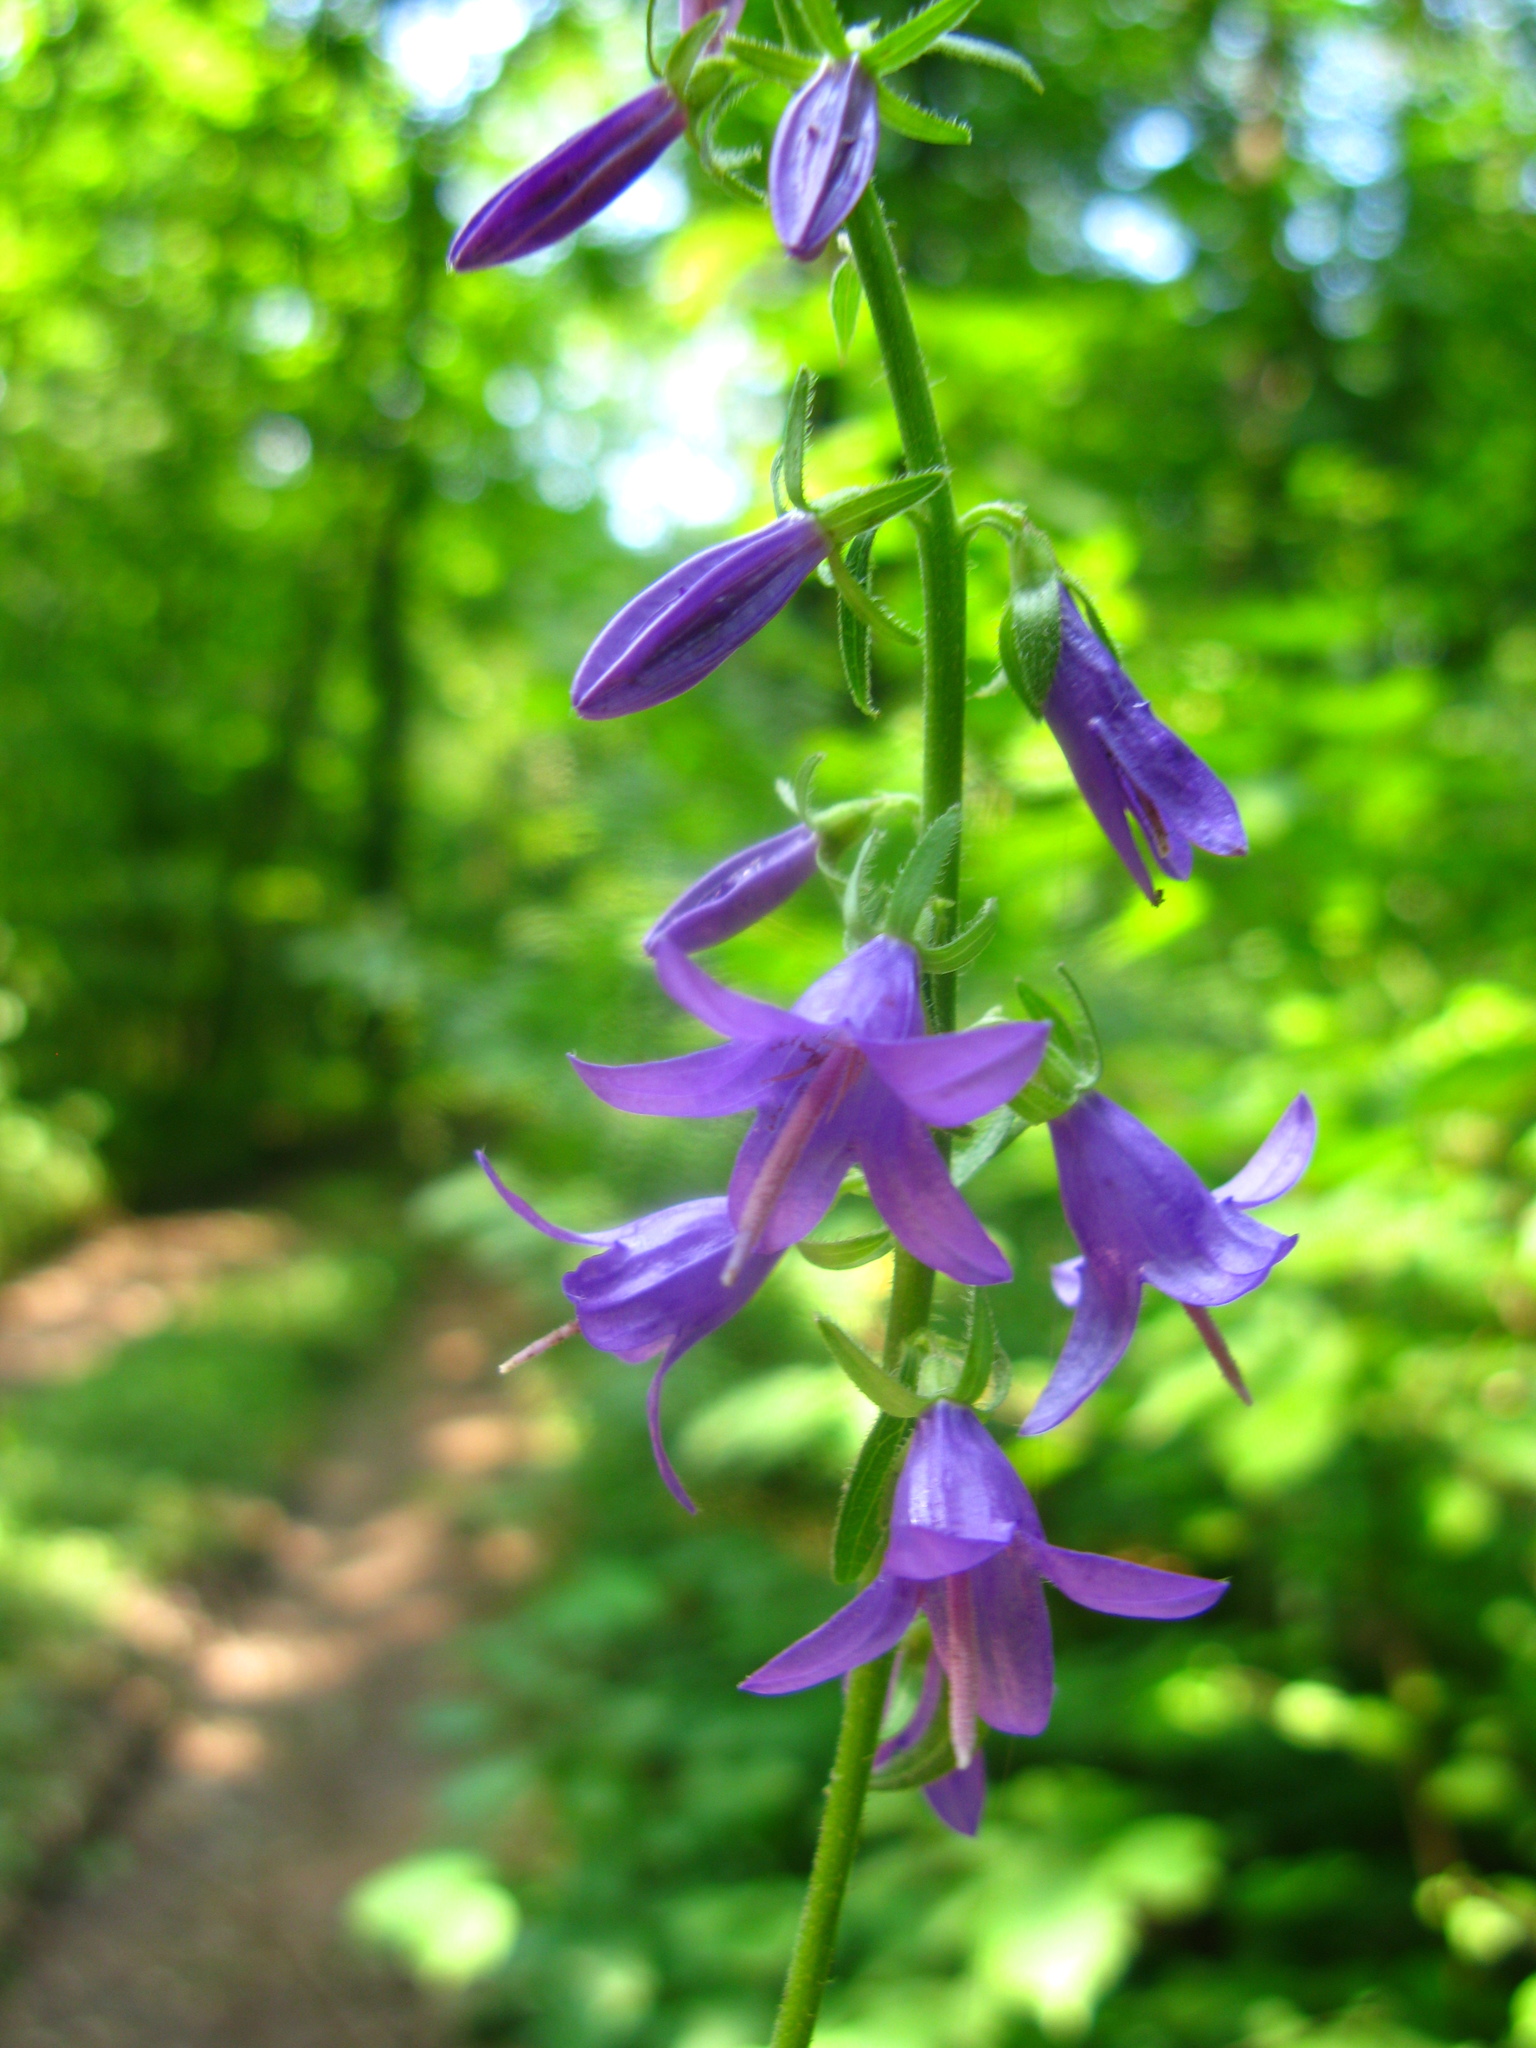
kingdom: Plantae
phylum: Tracheophyta
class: Magnoliopsida
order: Asterales
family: Campanulaceae
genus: Campanula
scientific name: Campanula rapunculoides
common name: Creeping bellflower
